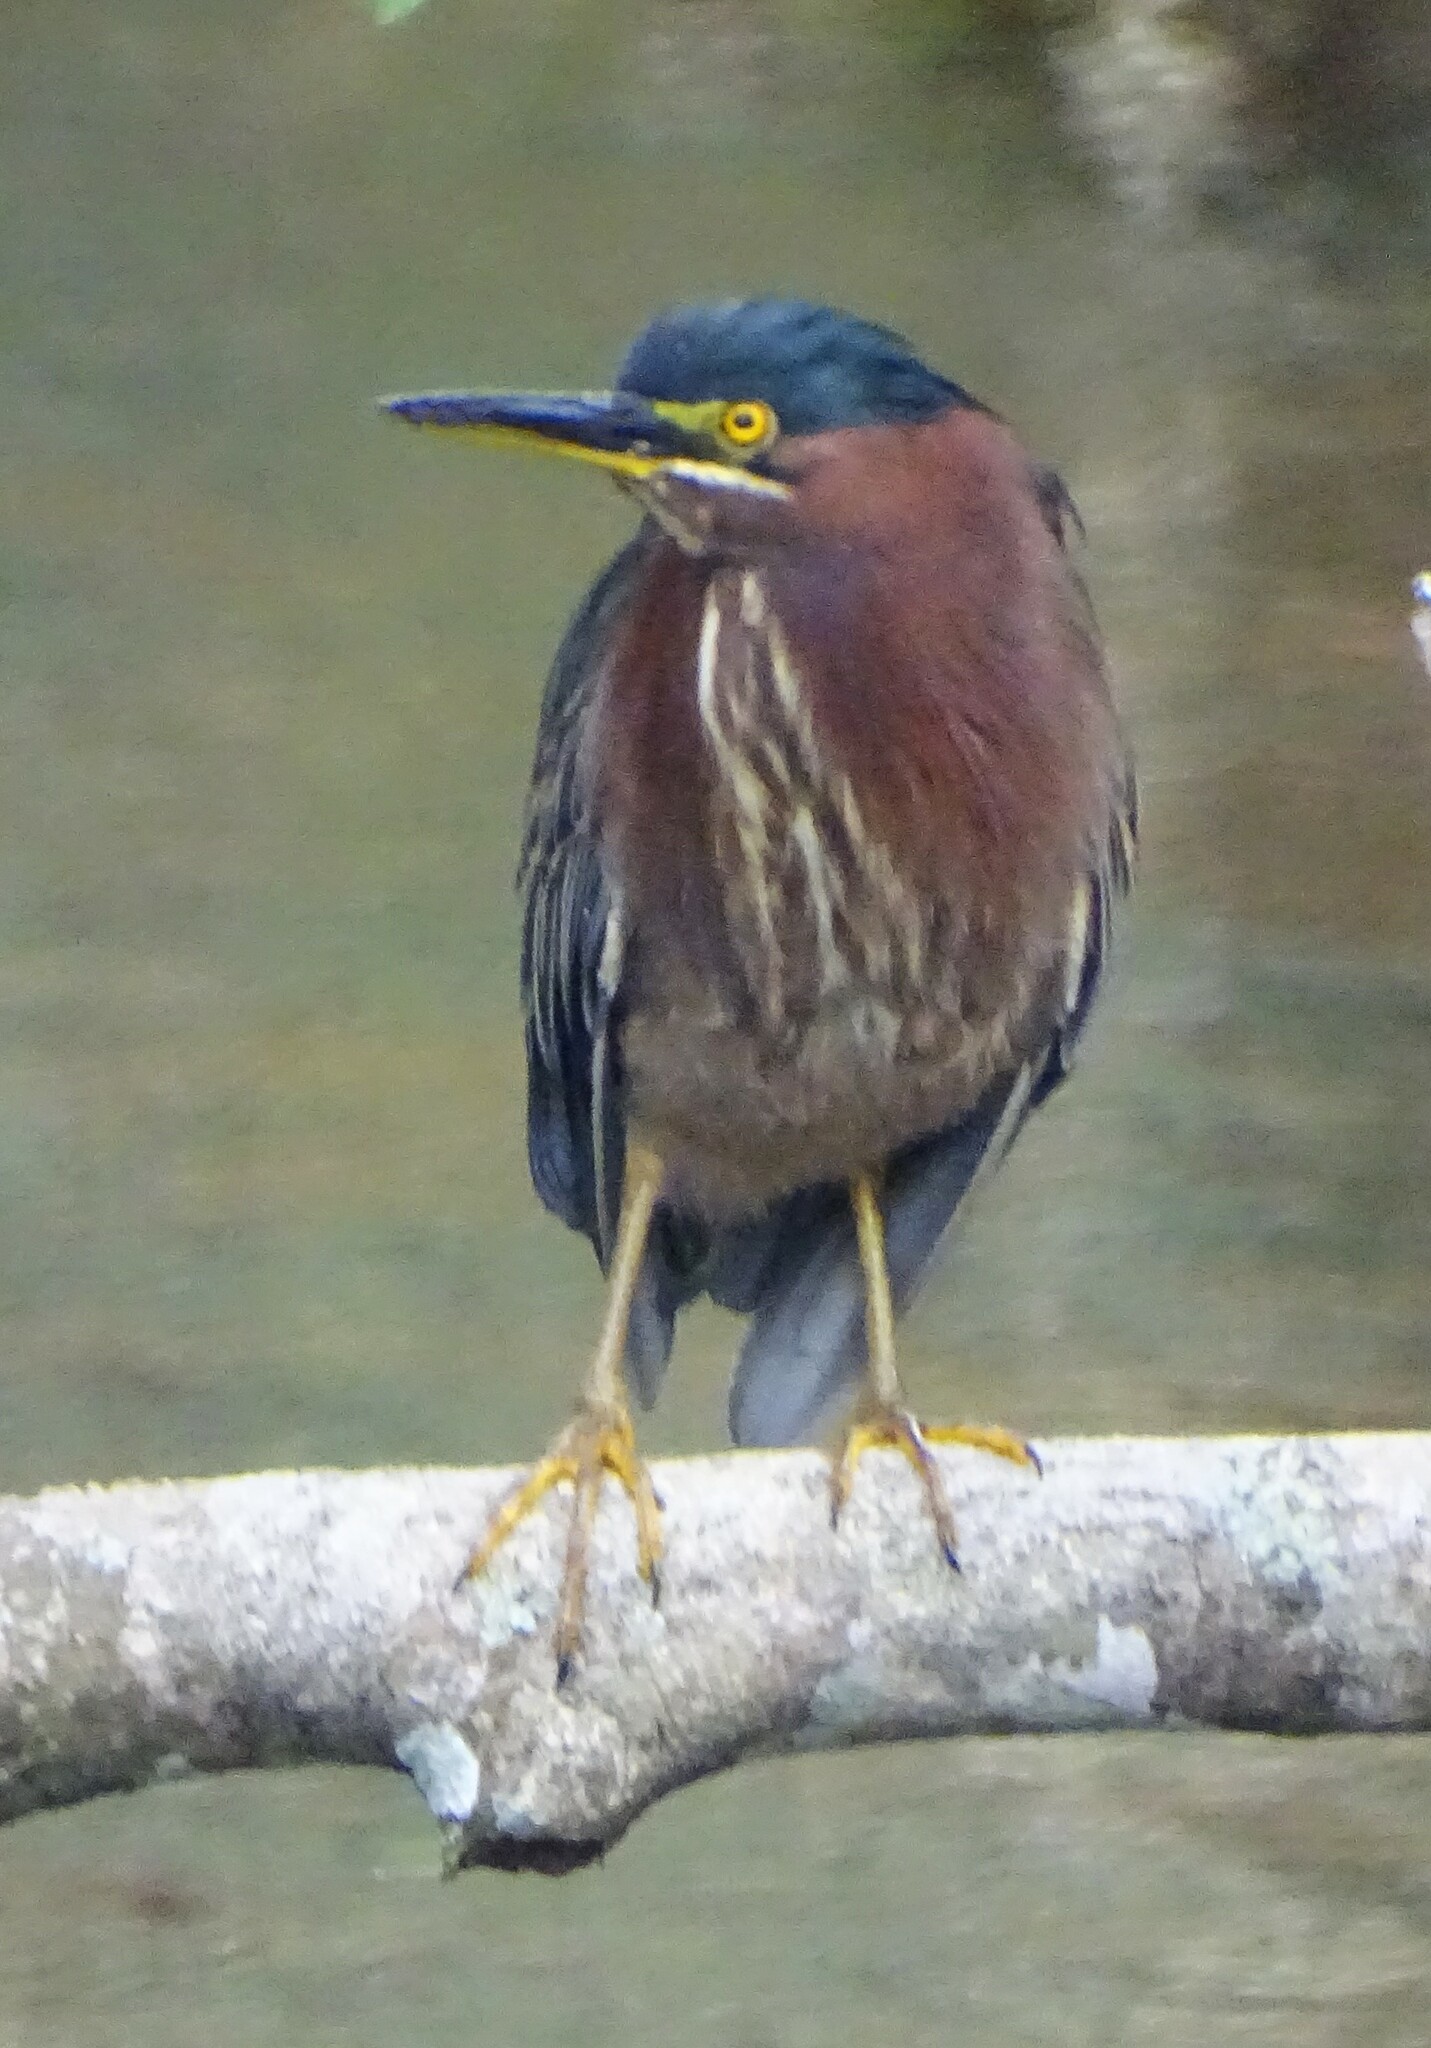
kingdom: Animalia
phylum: Chordata
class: Aves
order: Pelecaniformes
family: Ardeidae
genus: Butorides
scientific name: Butorides virescens
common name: Green heron
